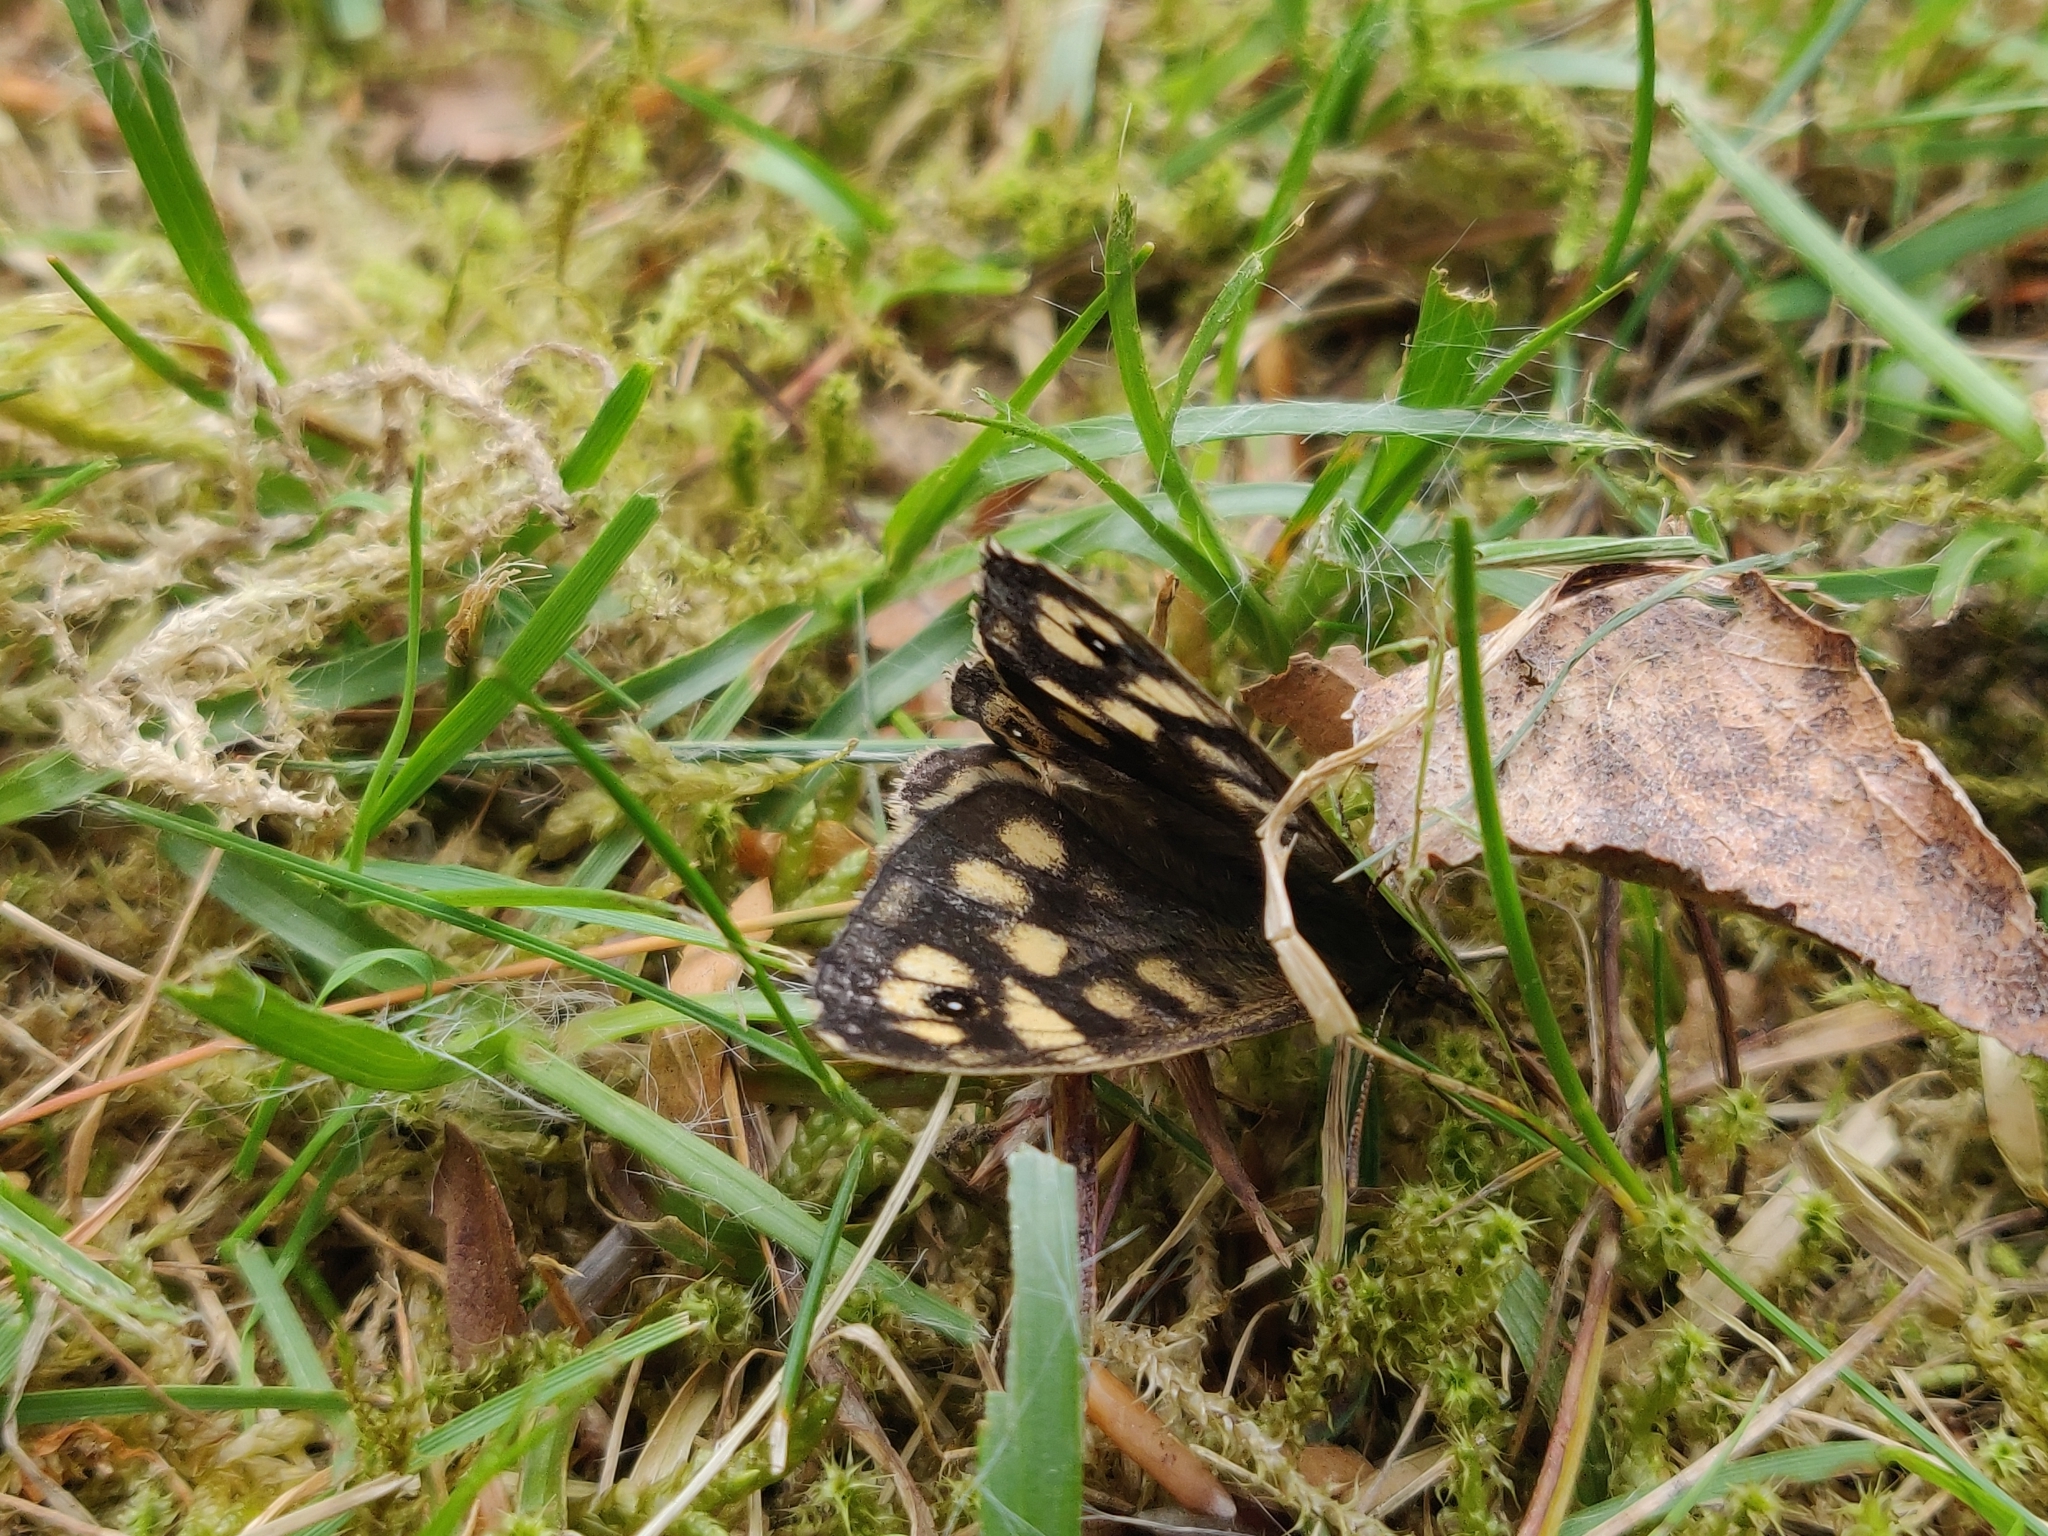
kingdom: Animalia
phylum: Arthropoda
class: Insecta
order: Lepidoptera
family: Nymphalidae
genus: Pararge
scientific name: Pararge aegeria
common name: Speckled wood
